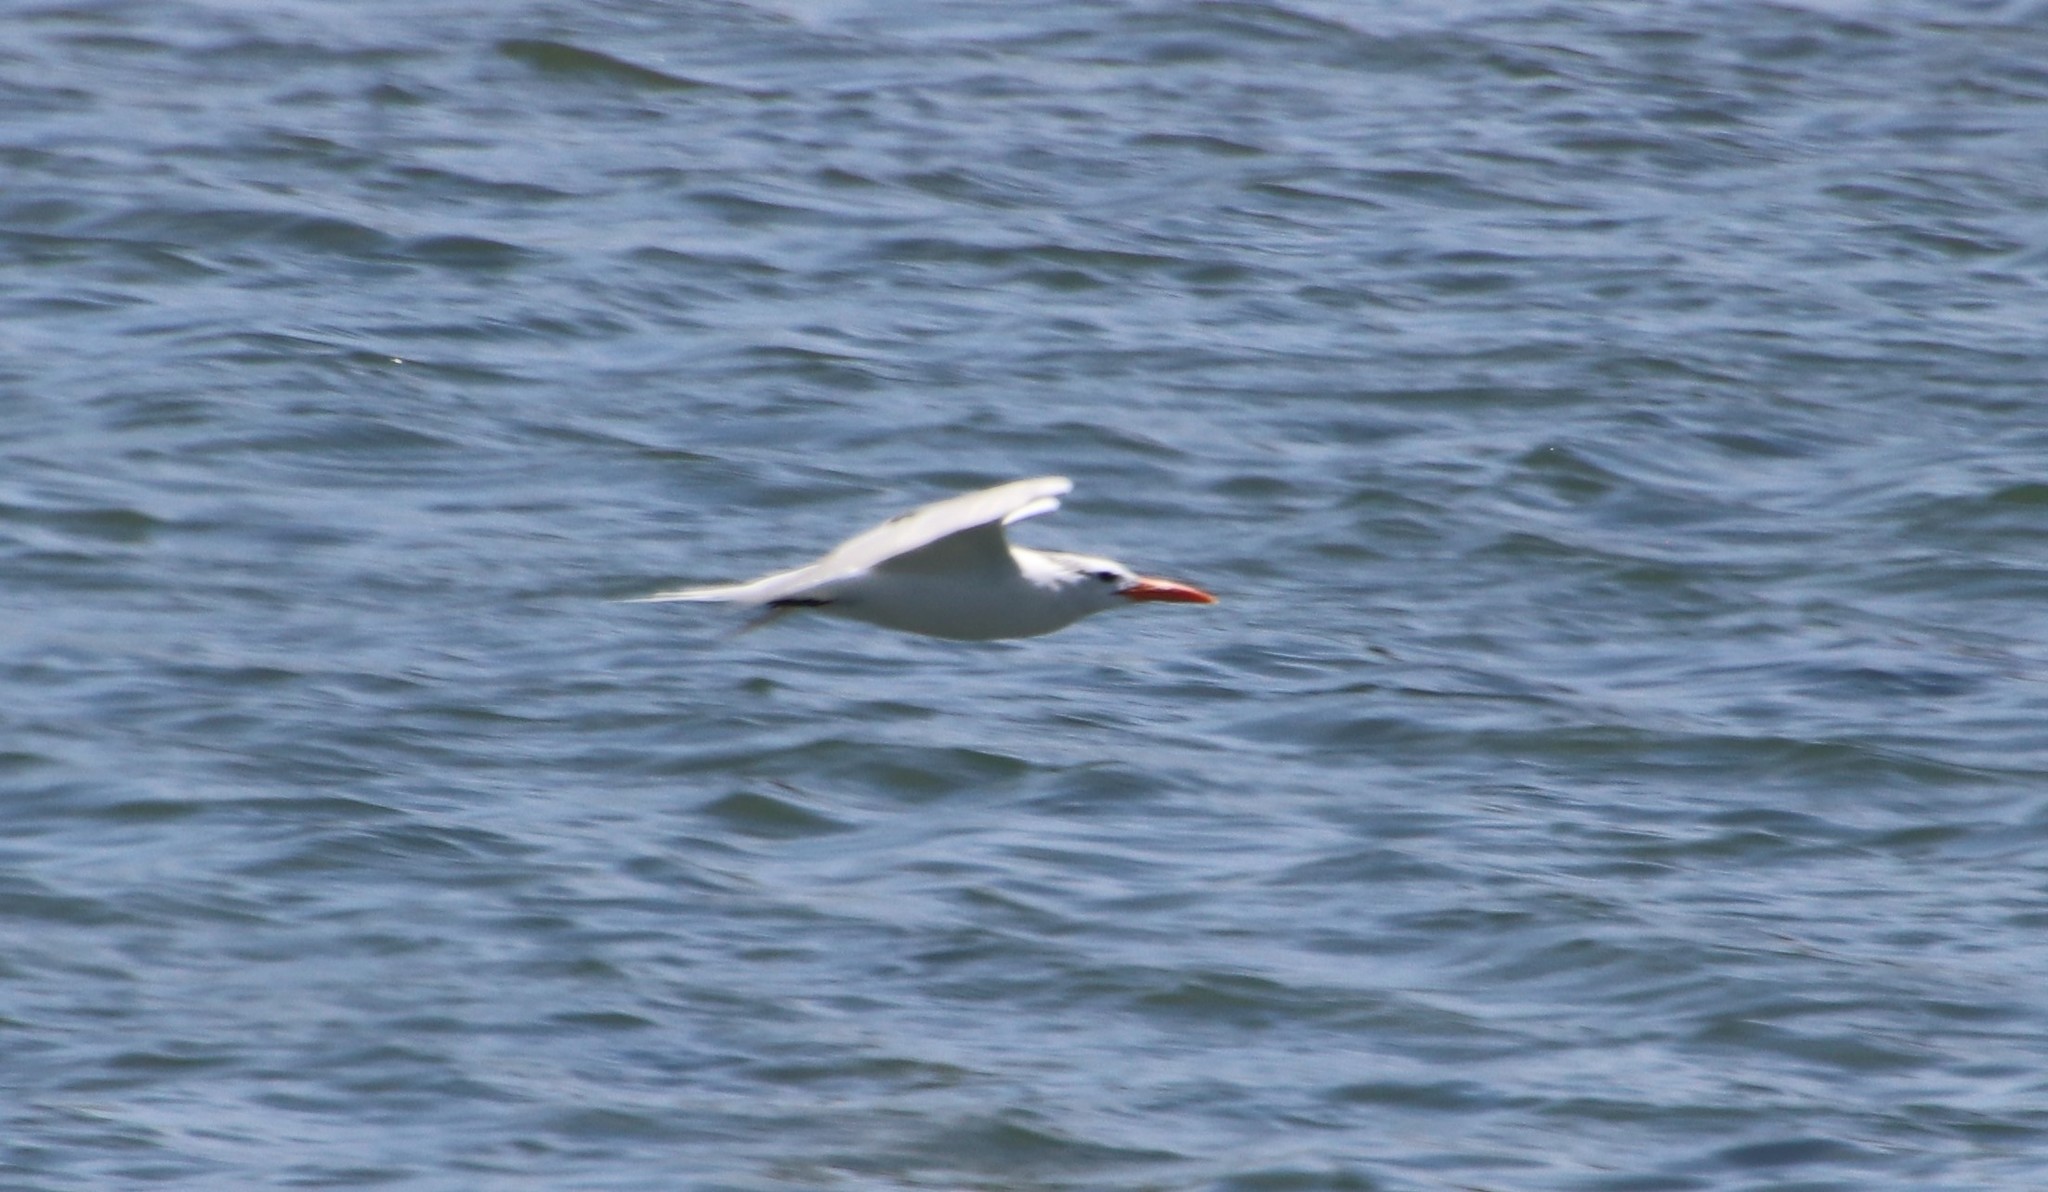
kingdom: Animalia
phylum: Chordata
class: Aves
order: Charadriiformes
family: Laridae
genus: Thalasseus
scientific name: Thalasseus maximus
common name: Royal tern
